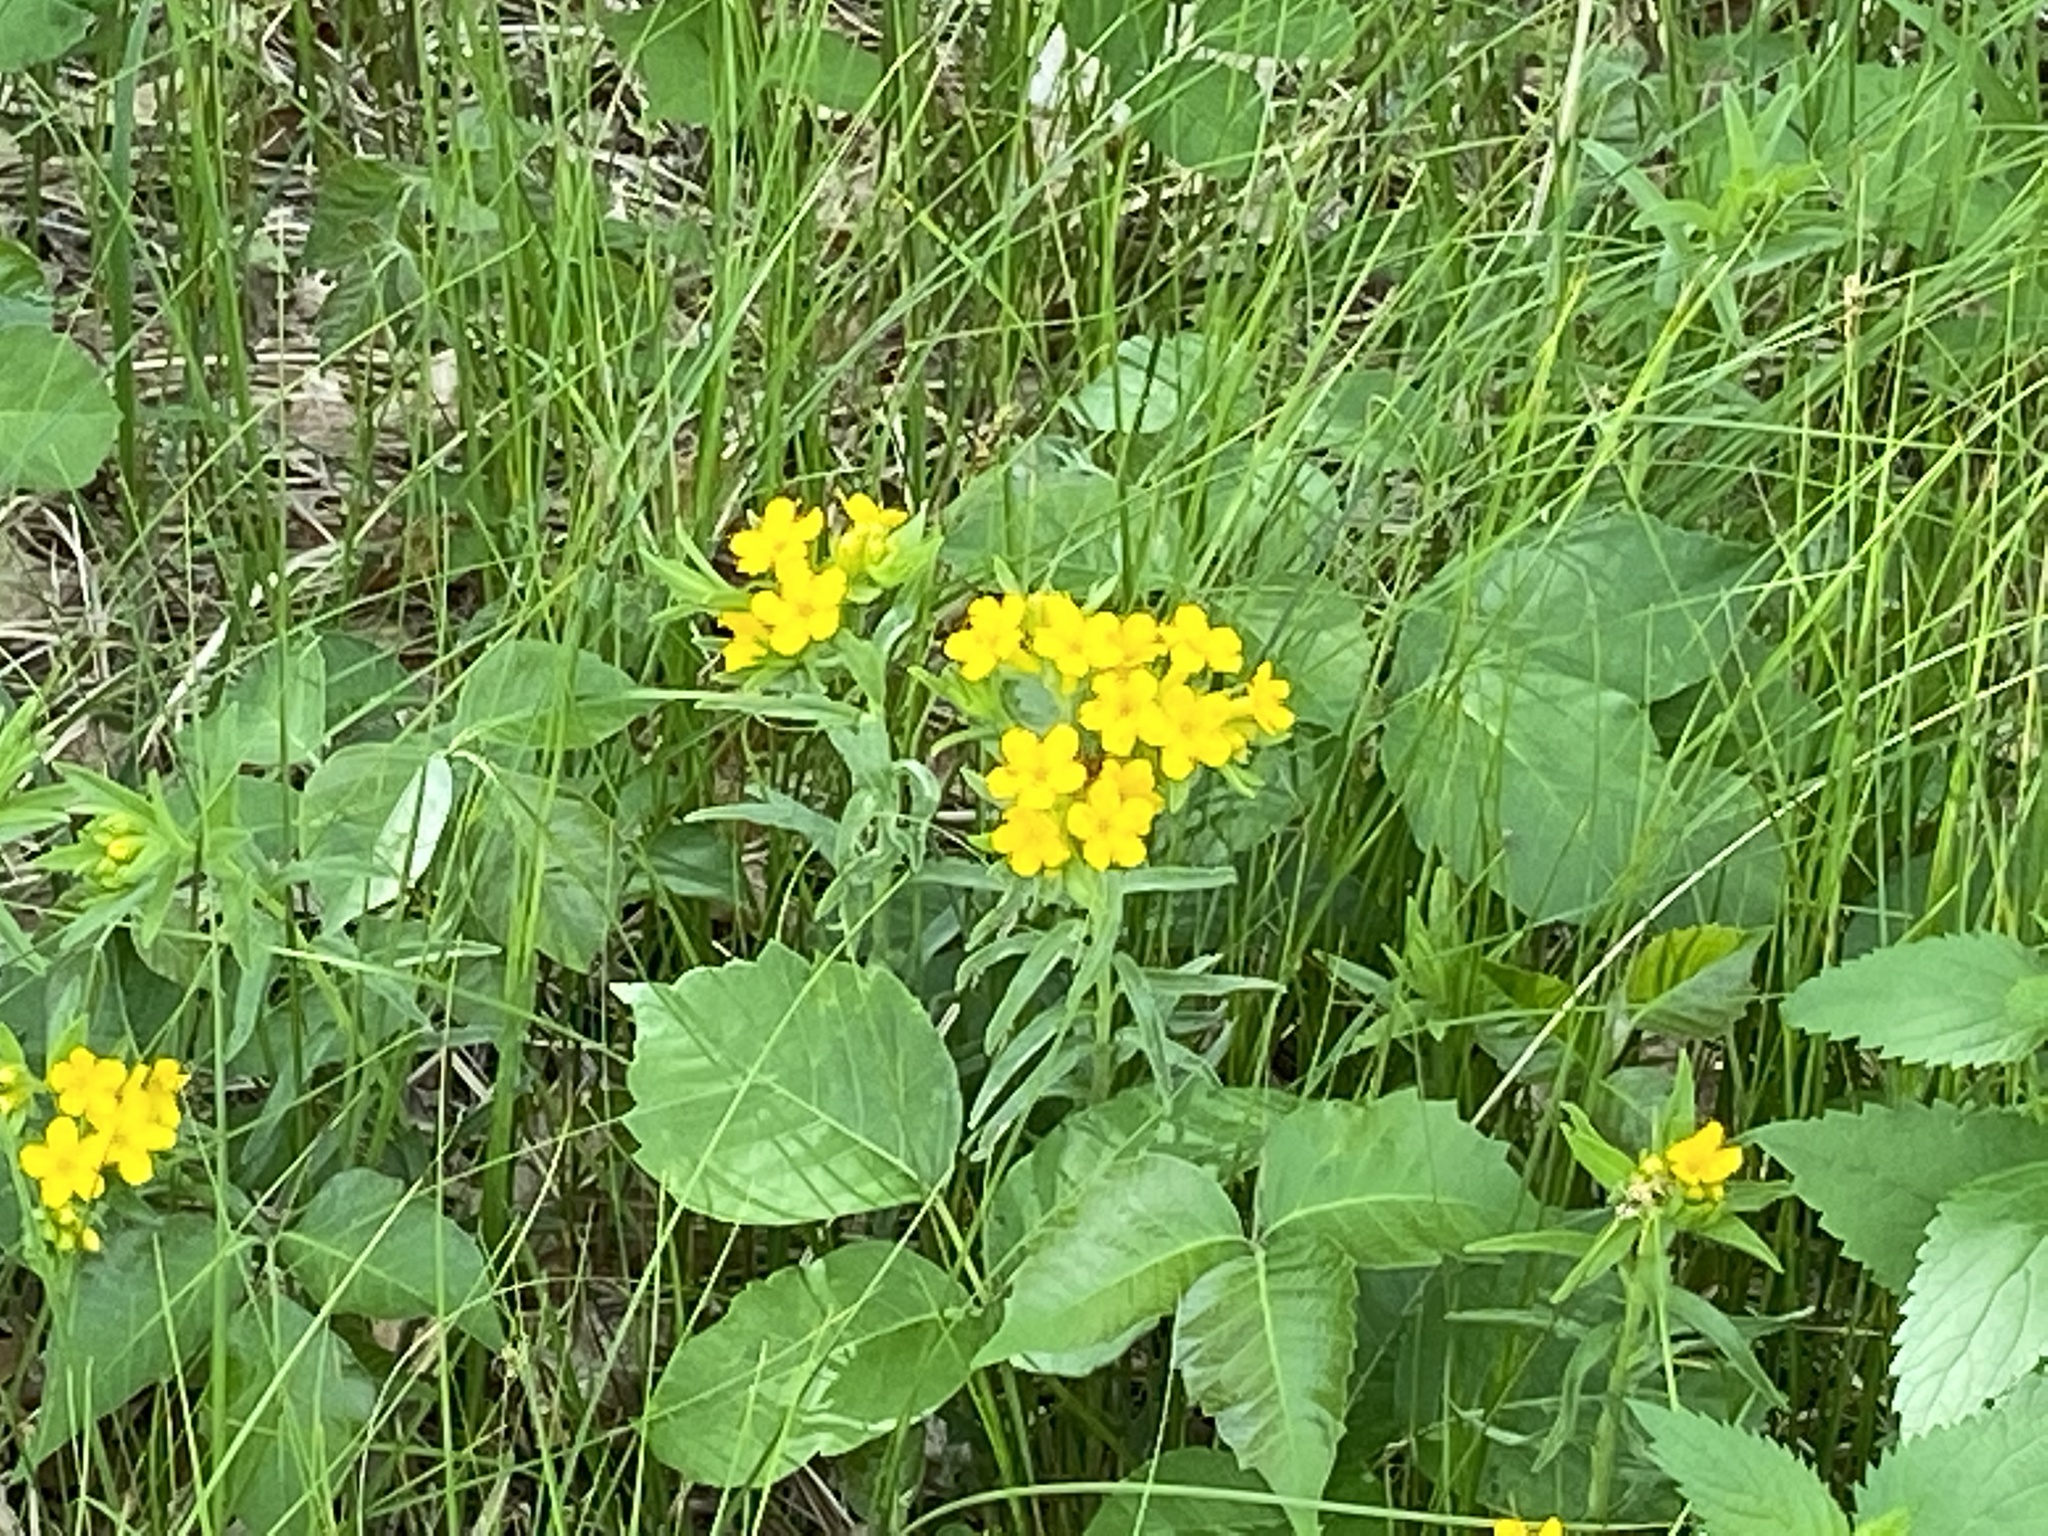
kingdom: Plantae
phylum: Tracheophyta
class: Magnoliopsida
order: Boraginales
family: Boraginaceae
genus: Lithospermum
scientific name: Lithospermum caroliniense
